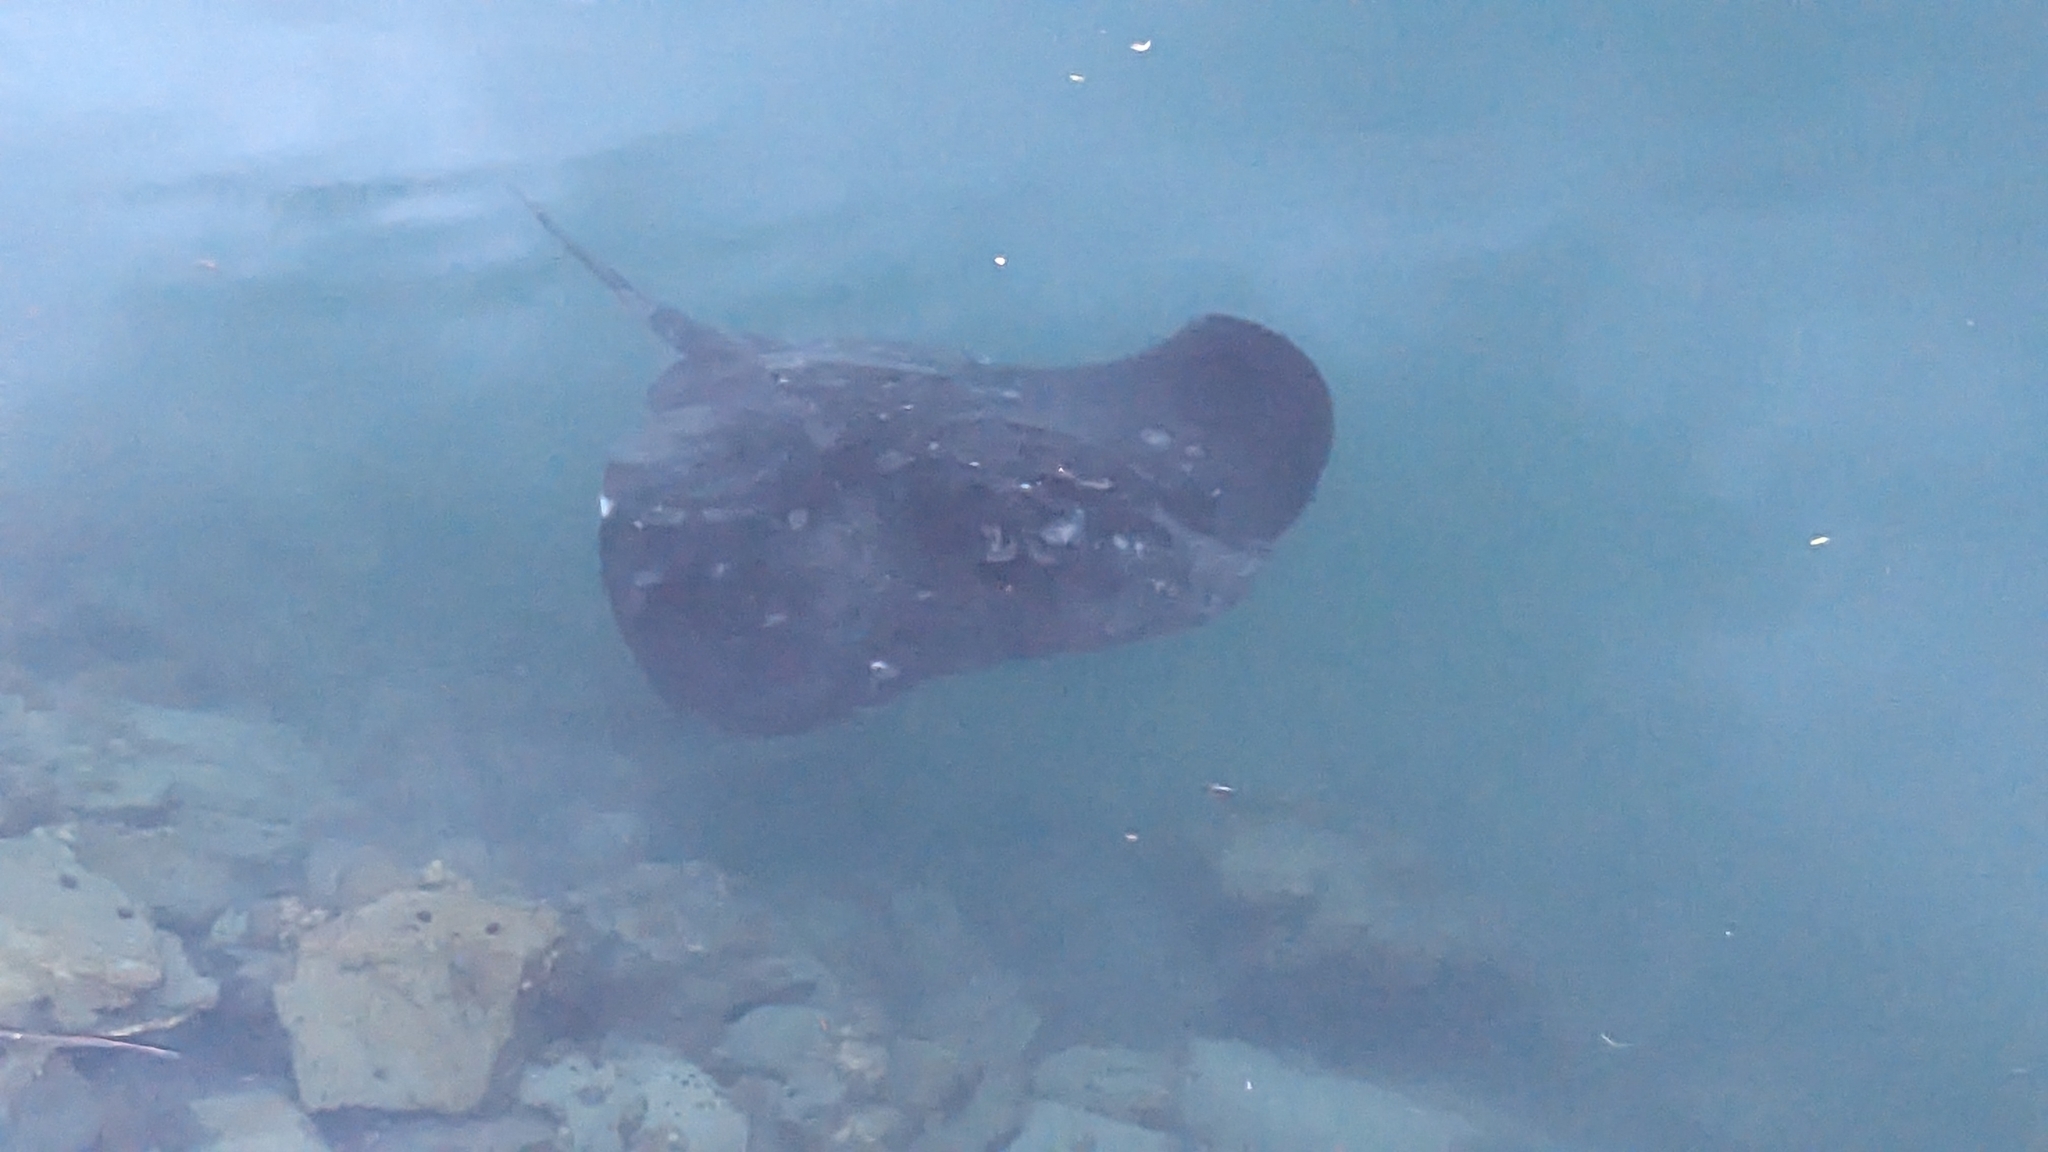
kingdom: Animalia
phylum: Chordata
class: Elasmobranchii
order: Myliobatiformes
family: Dasyatidae
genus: Bathytoshia
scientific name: Bathytoshia brevicaudata
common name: Short-tail stingray
